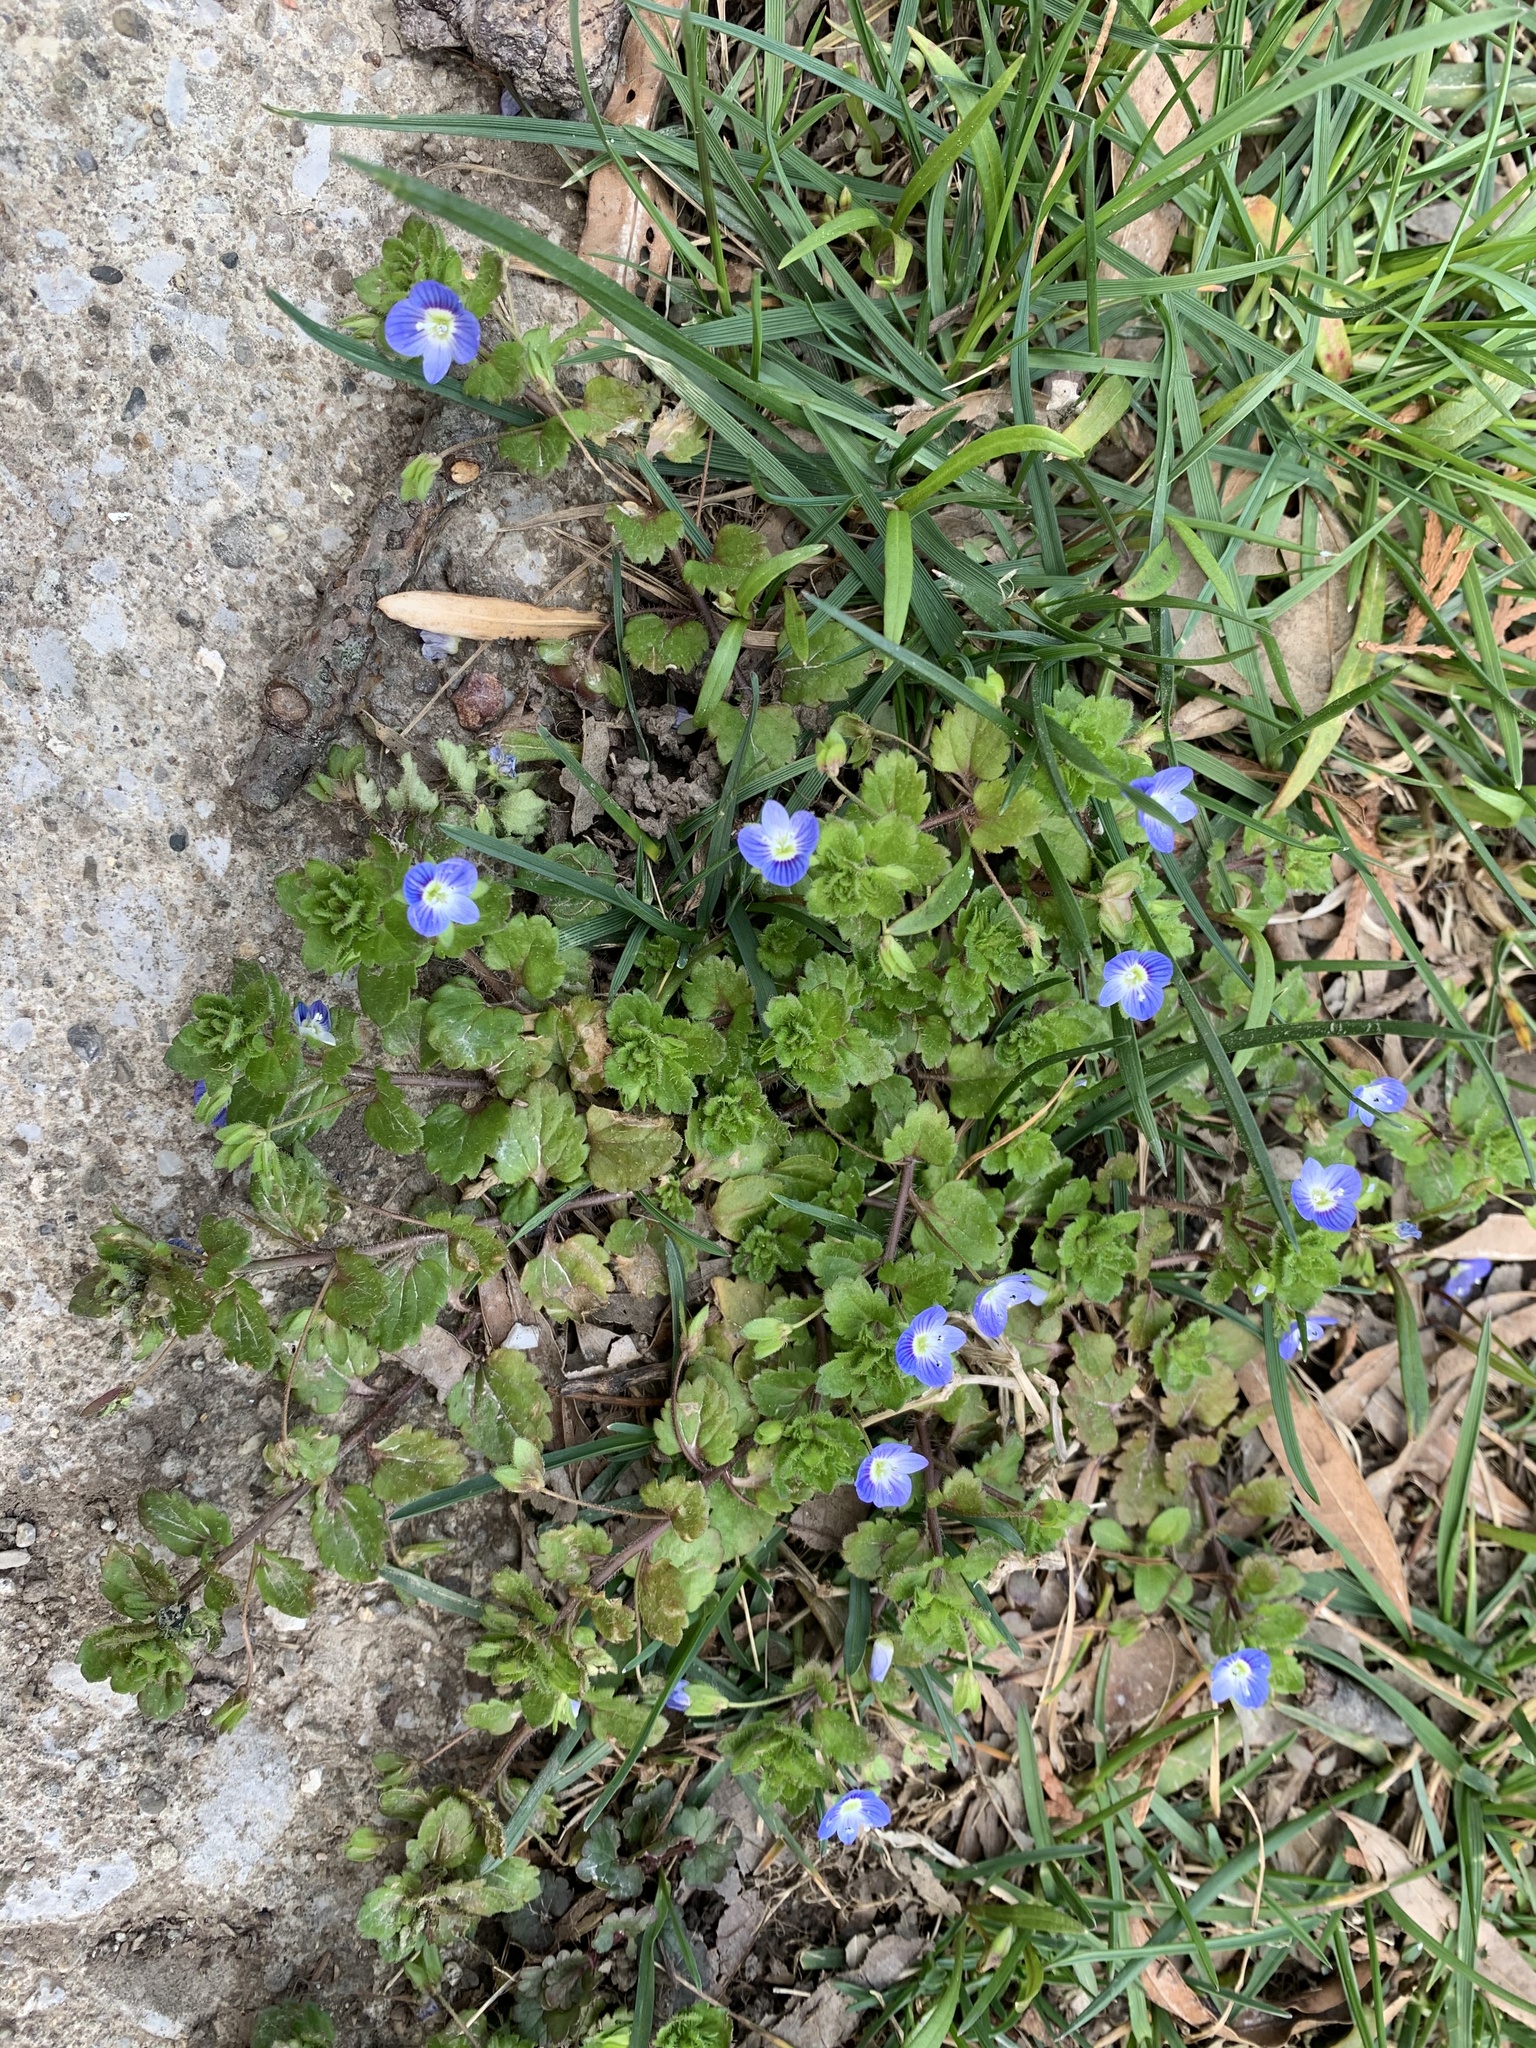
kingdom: Plantae
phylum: Tracheophyta
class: Magnoliopsida
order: Lamiales
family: Plantaginaceae
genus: Veronica
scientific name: Veronica persica
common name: Common field-speedwell
